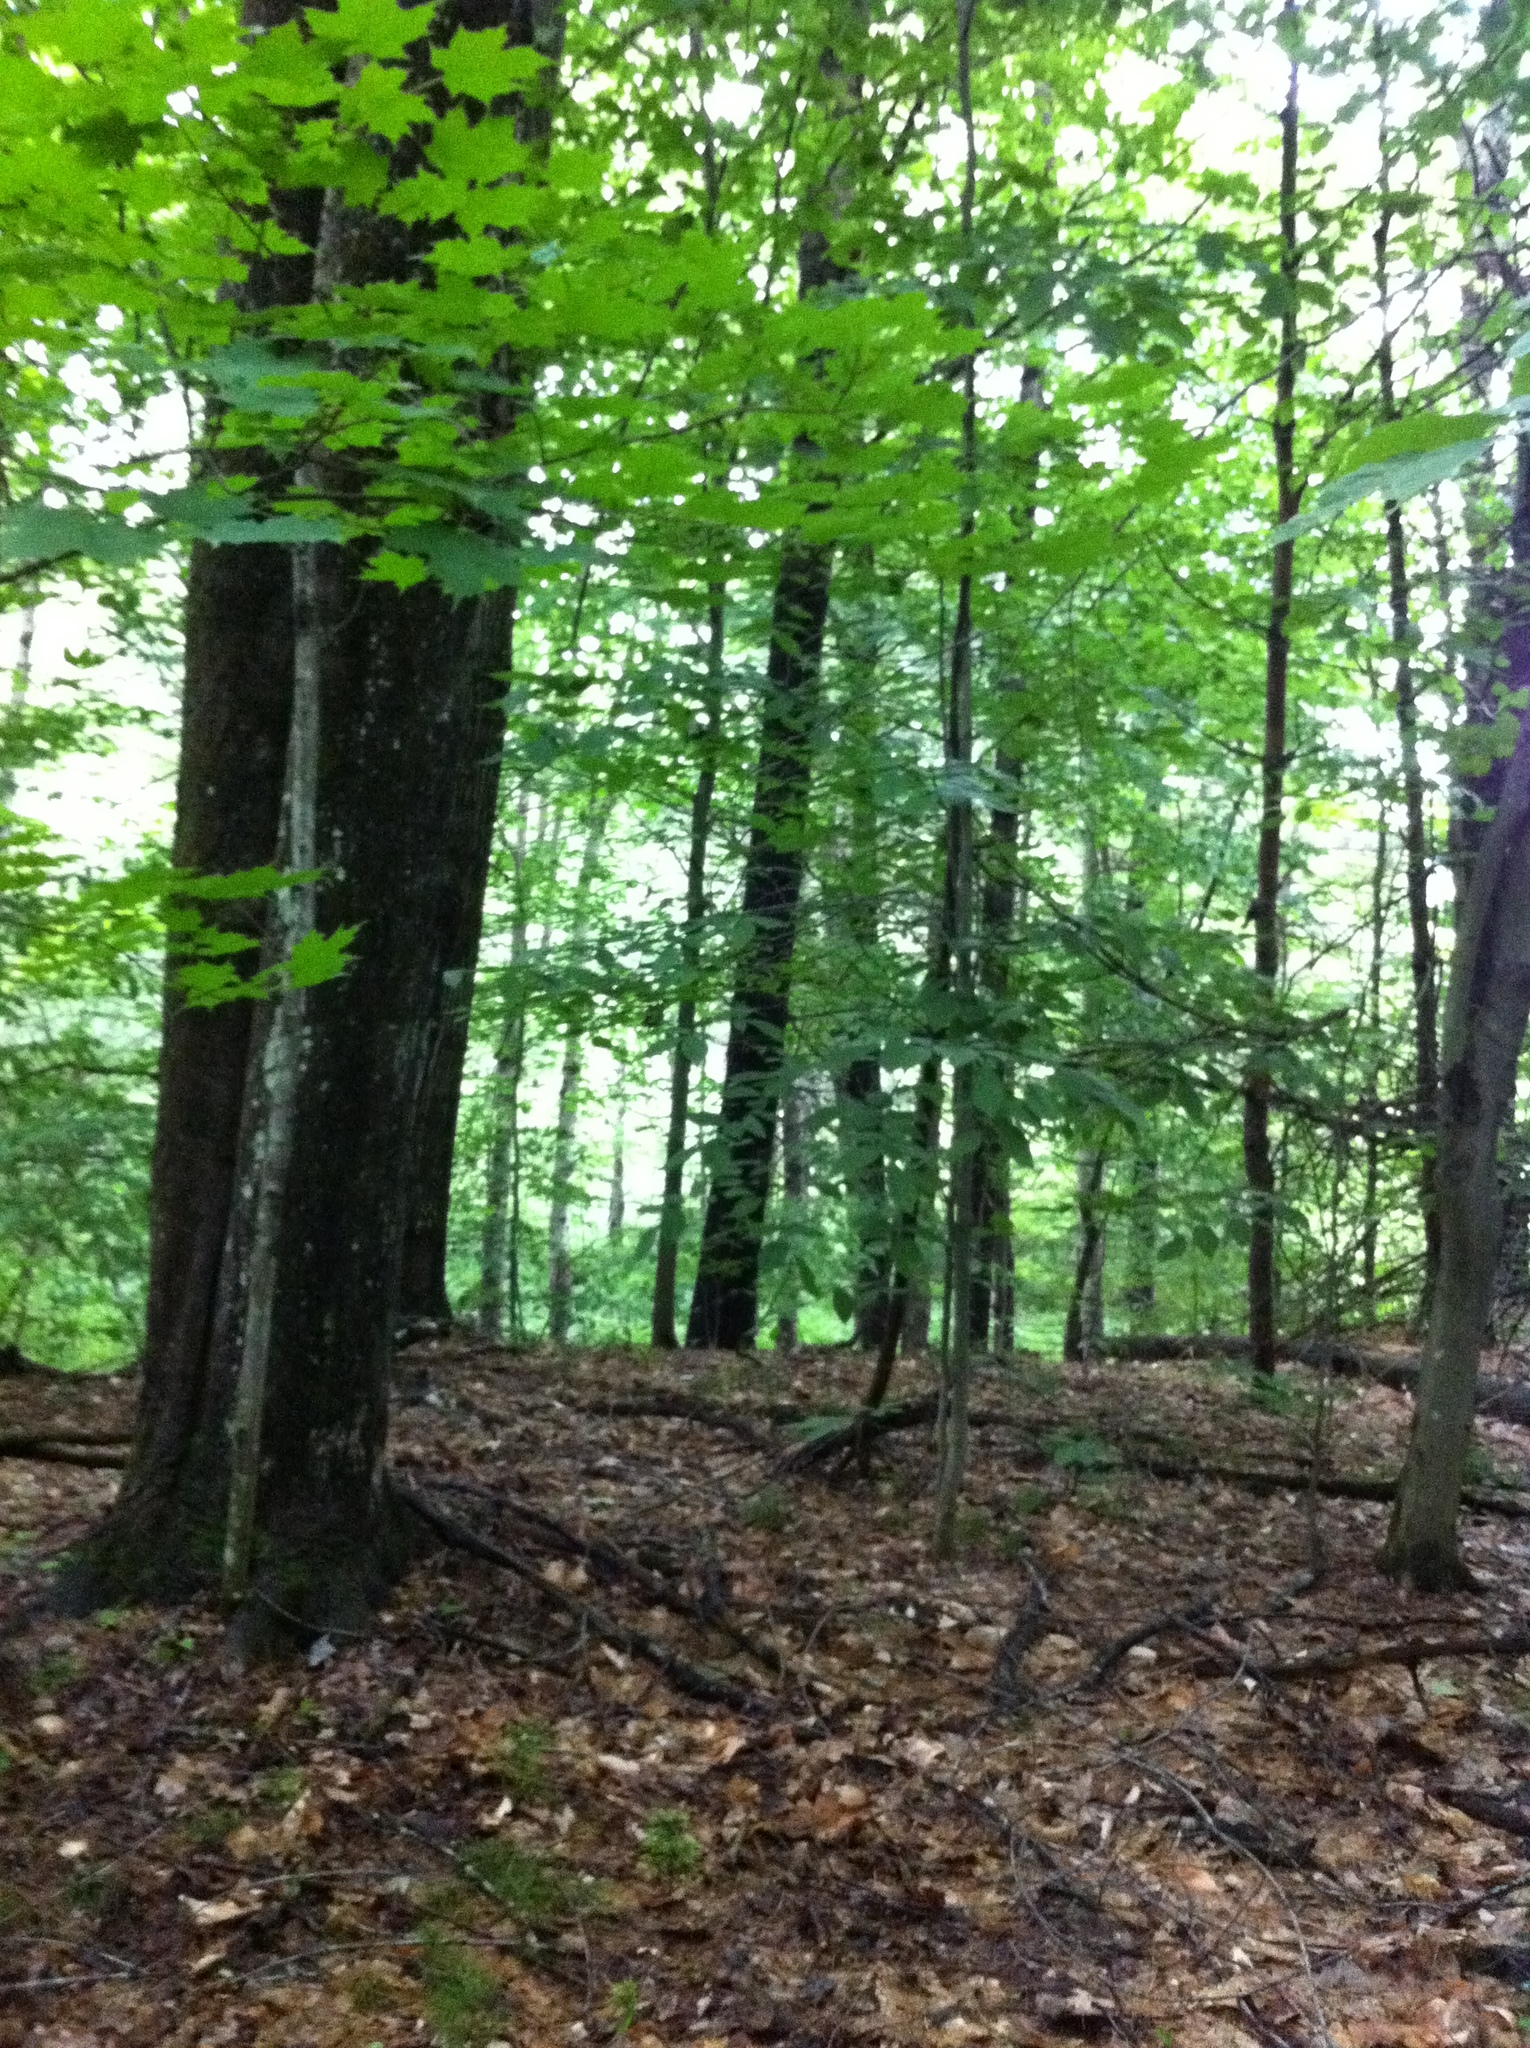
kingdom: Plantae
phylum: Tracheophyta
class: Magnoliopsida
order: Sapindales
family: Sapindaceae
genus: Acer
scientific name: Acer saccharum
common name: Sugar maple
